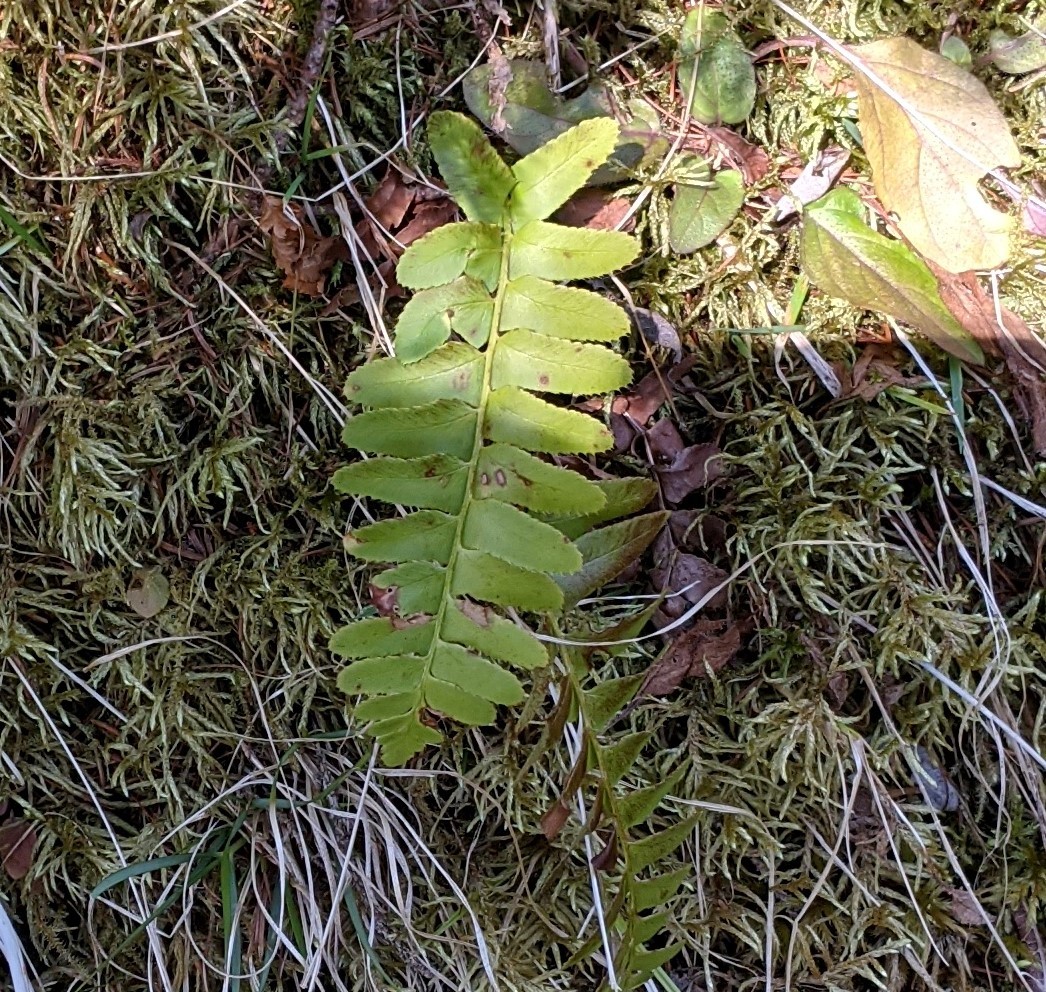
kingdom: Plantae
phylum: Tracheophyta
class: Polypodiopsida
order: Polypodiales
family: Dryopteridaceae
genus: Polystichum
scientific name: Polystichum acrostichoides
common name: Christmas fern
